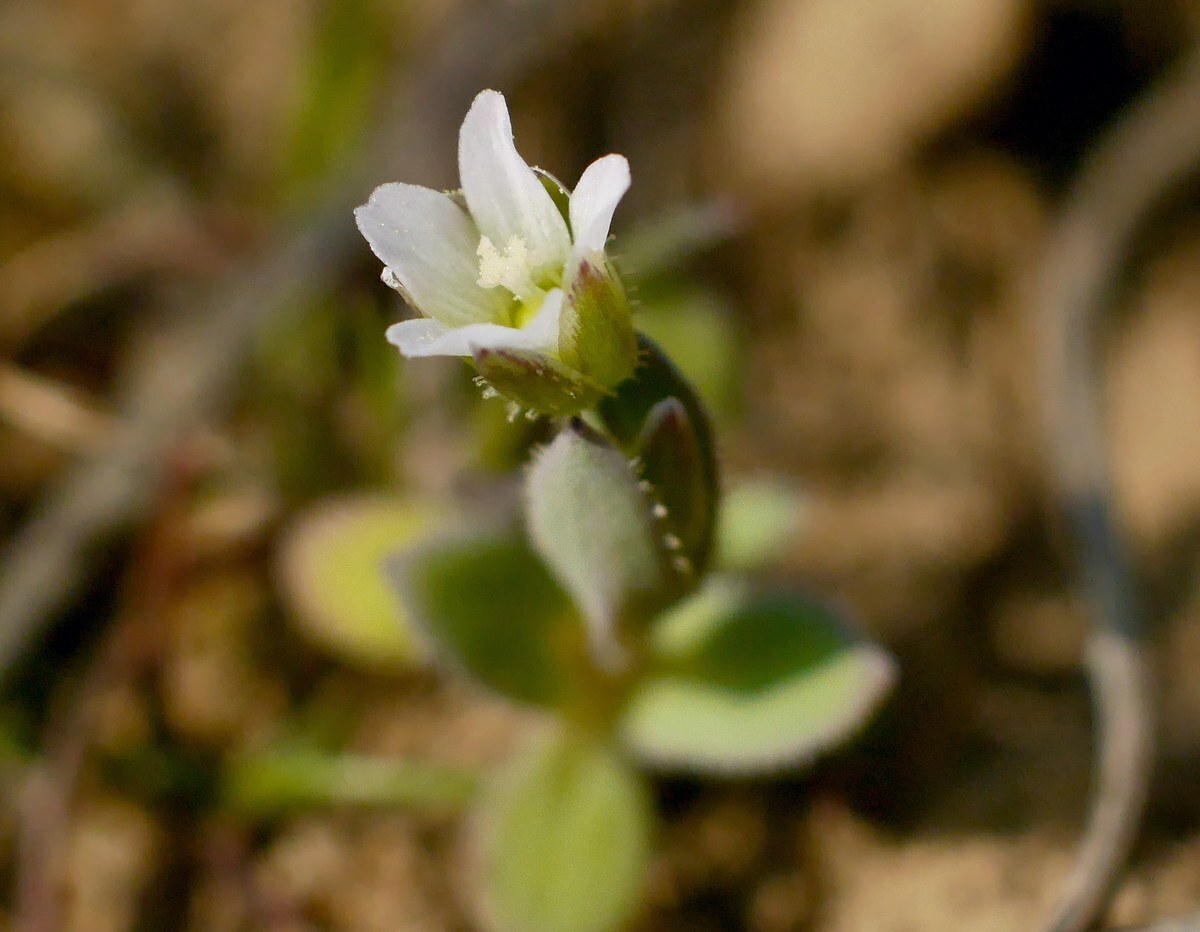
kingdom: Plantae
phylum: Tracheophyta
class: Magnoliopsida
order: Caryophyllales
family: Caryophyllaceae
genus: Holosteum
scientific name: Holosteum umbellatum
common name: Jagged chickweed
